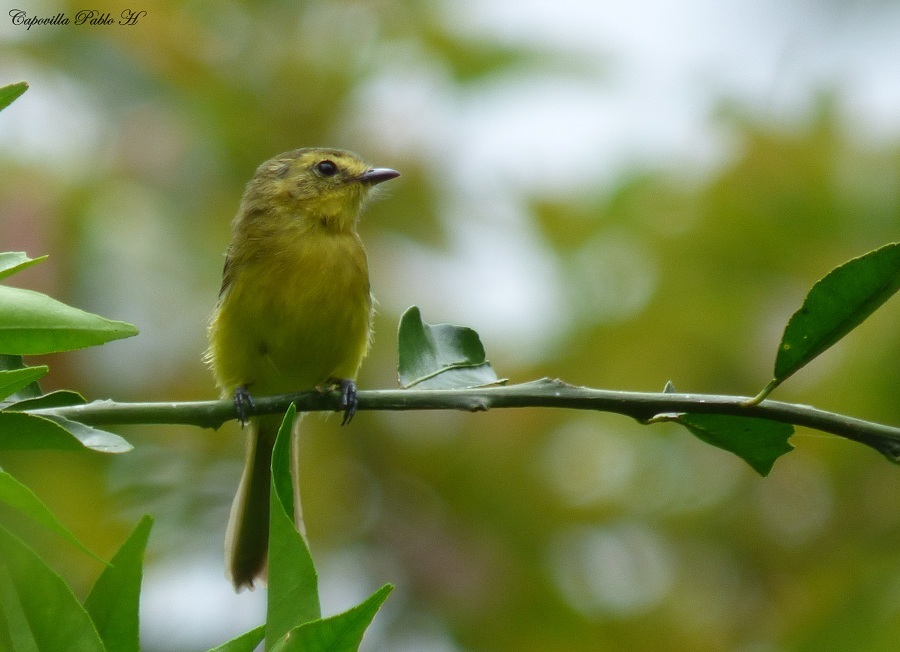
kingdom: Animalia
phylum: Chordata
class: Aves
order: Passeriformes
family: Tyrannidae
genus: Capsiempis
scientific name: Capsiempis flaveola
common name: Yellow tyrannulet
